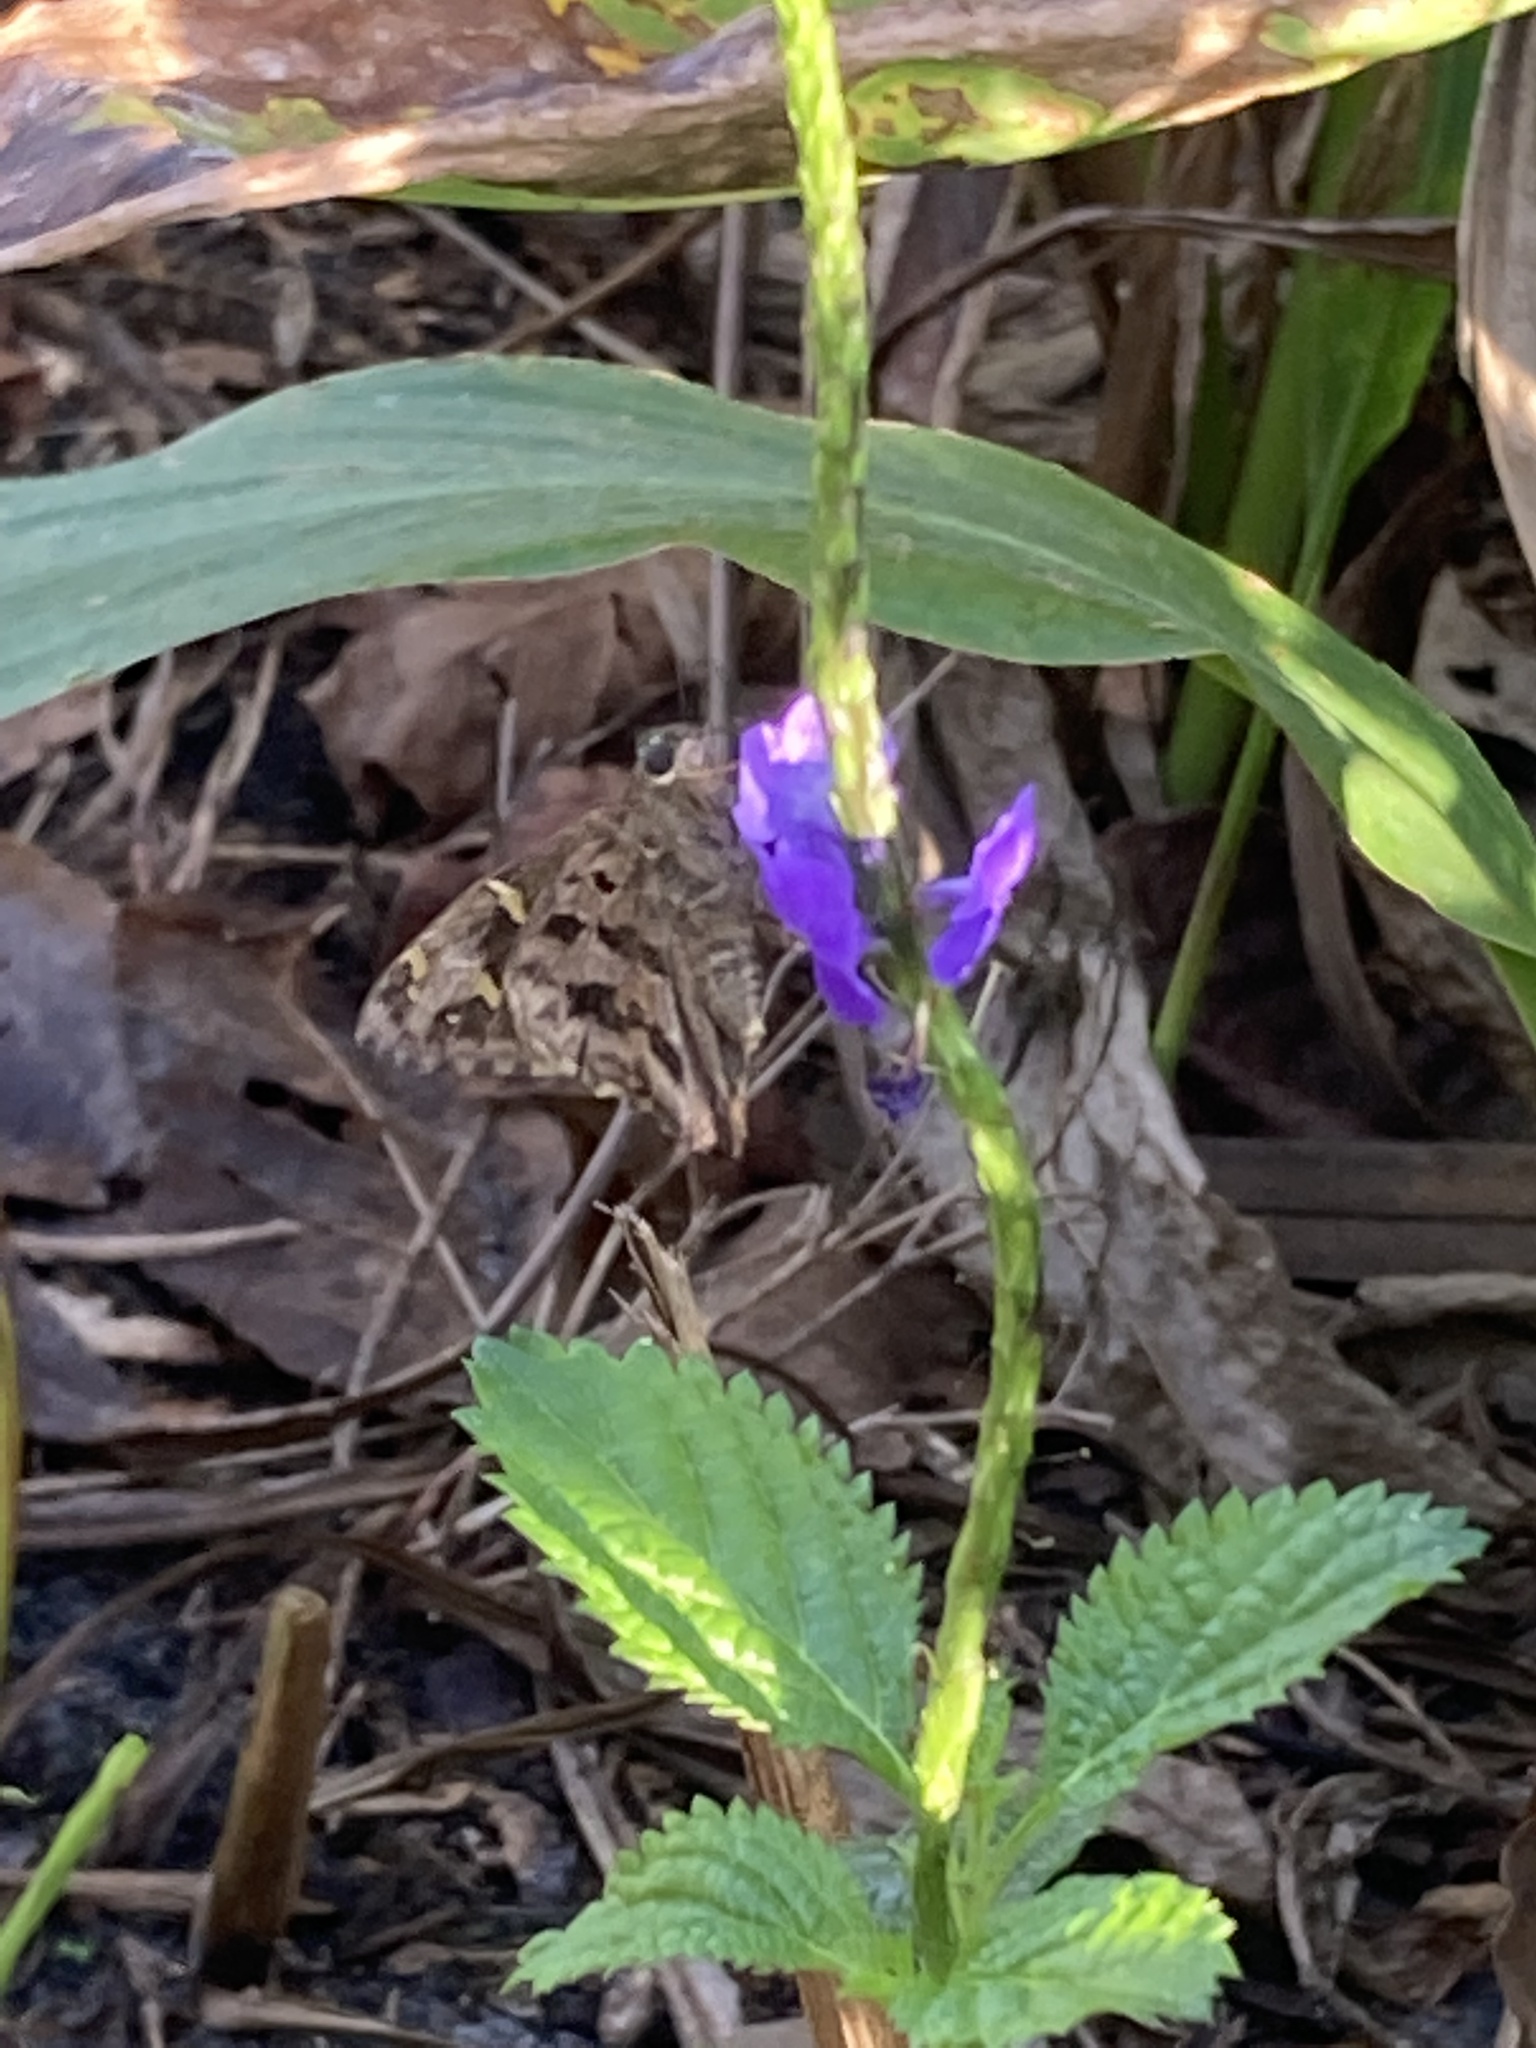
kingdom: Animalia
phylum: Arthropoda
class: Insecta
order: Lepidoptera
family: Hesperiidae
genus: Thorybes
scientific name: Thorybes
